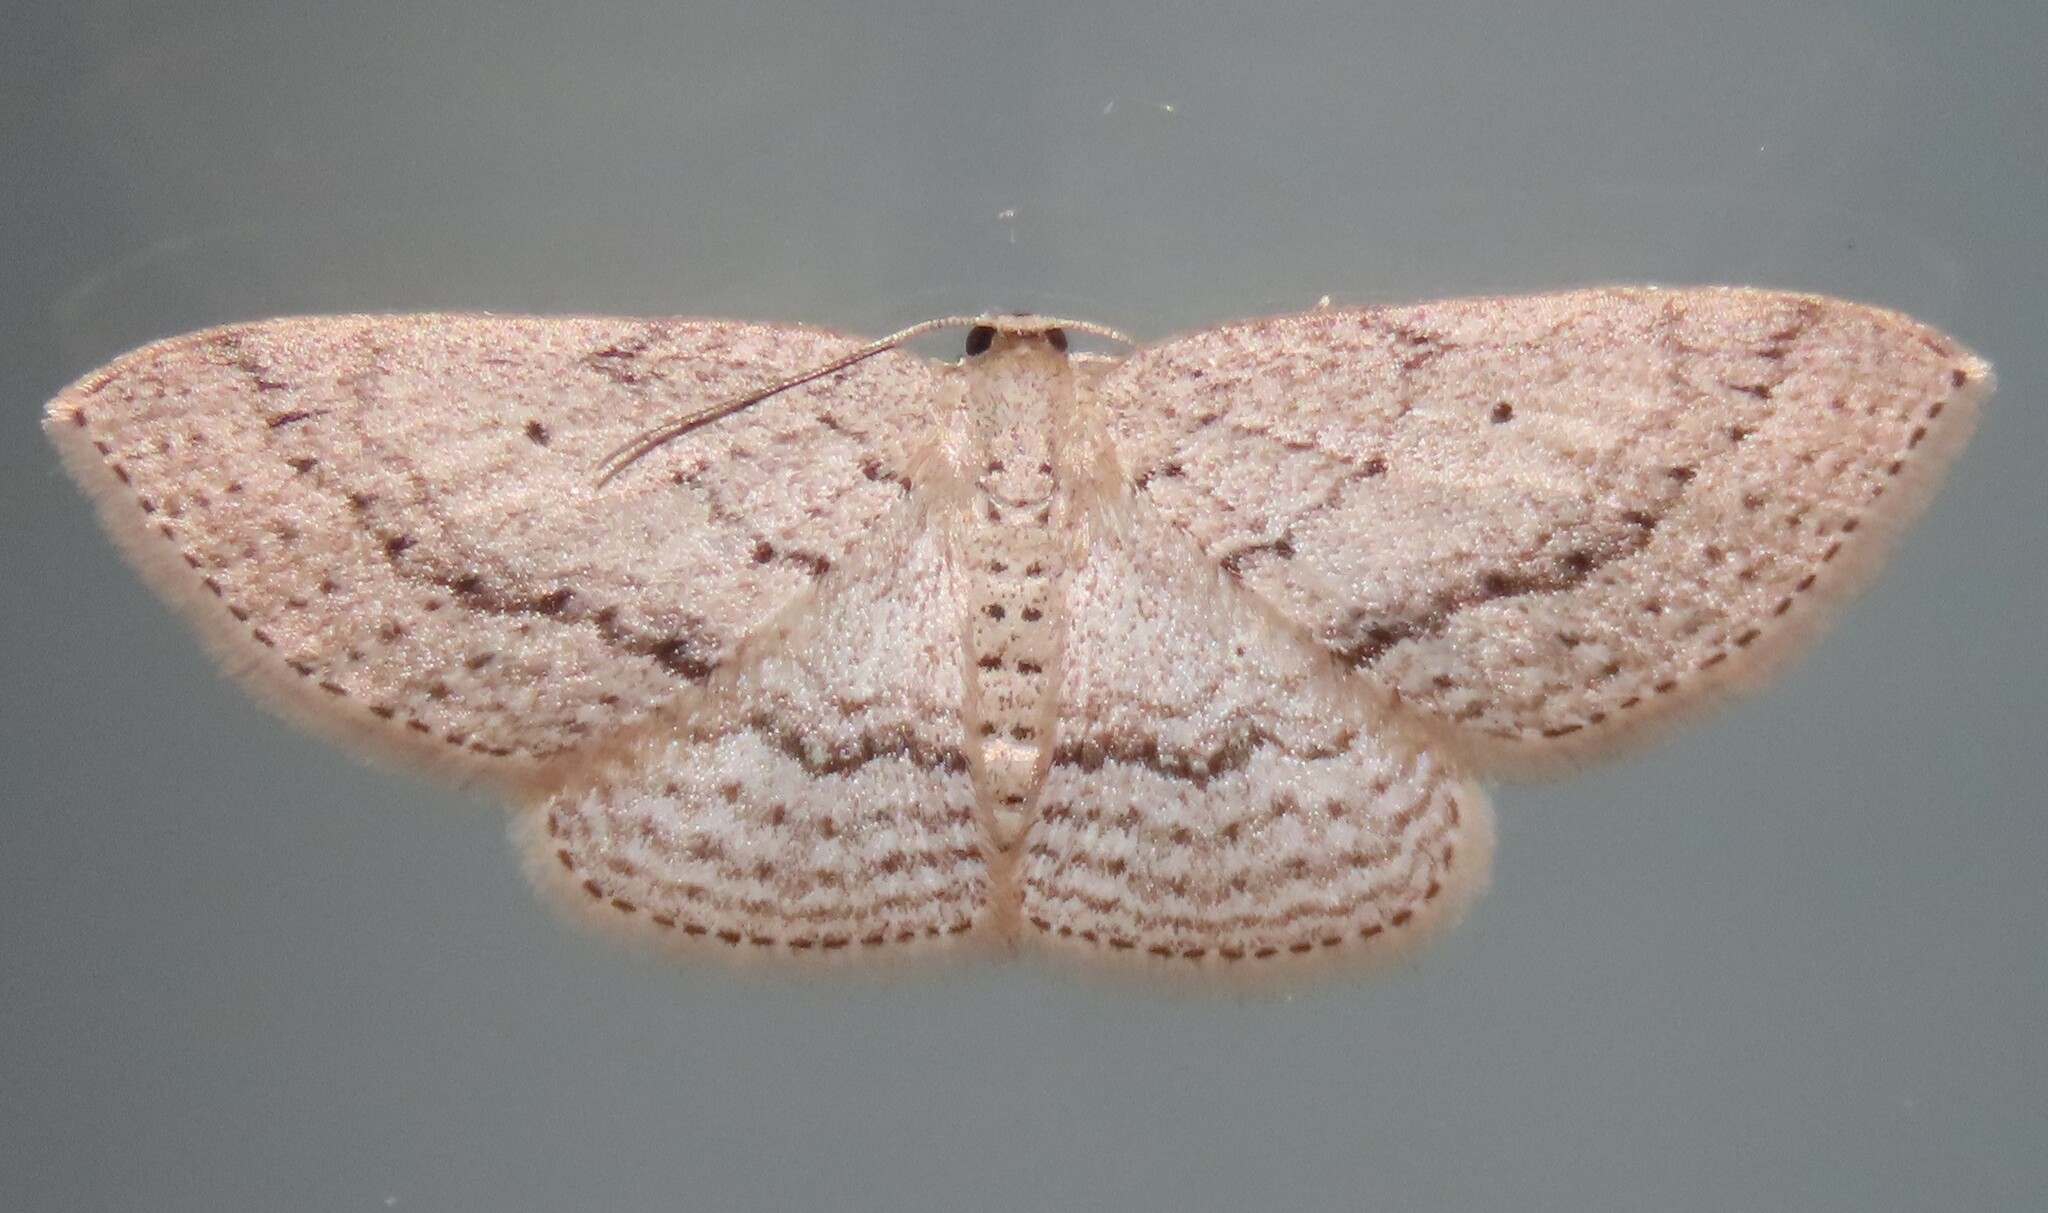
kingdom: Animalia
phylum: Arthropoda
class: Insecta
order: Lepidoptera
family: Geometridae
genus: Poecilasthena
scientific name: Poecilasthena schistaria
